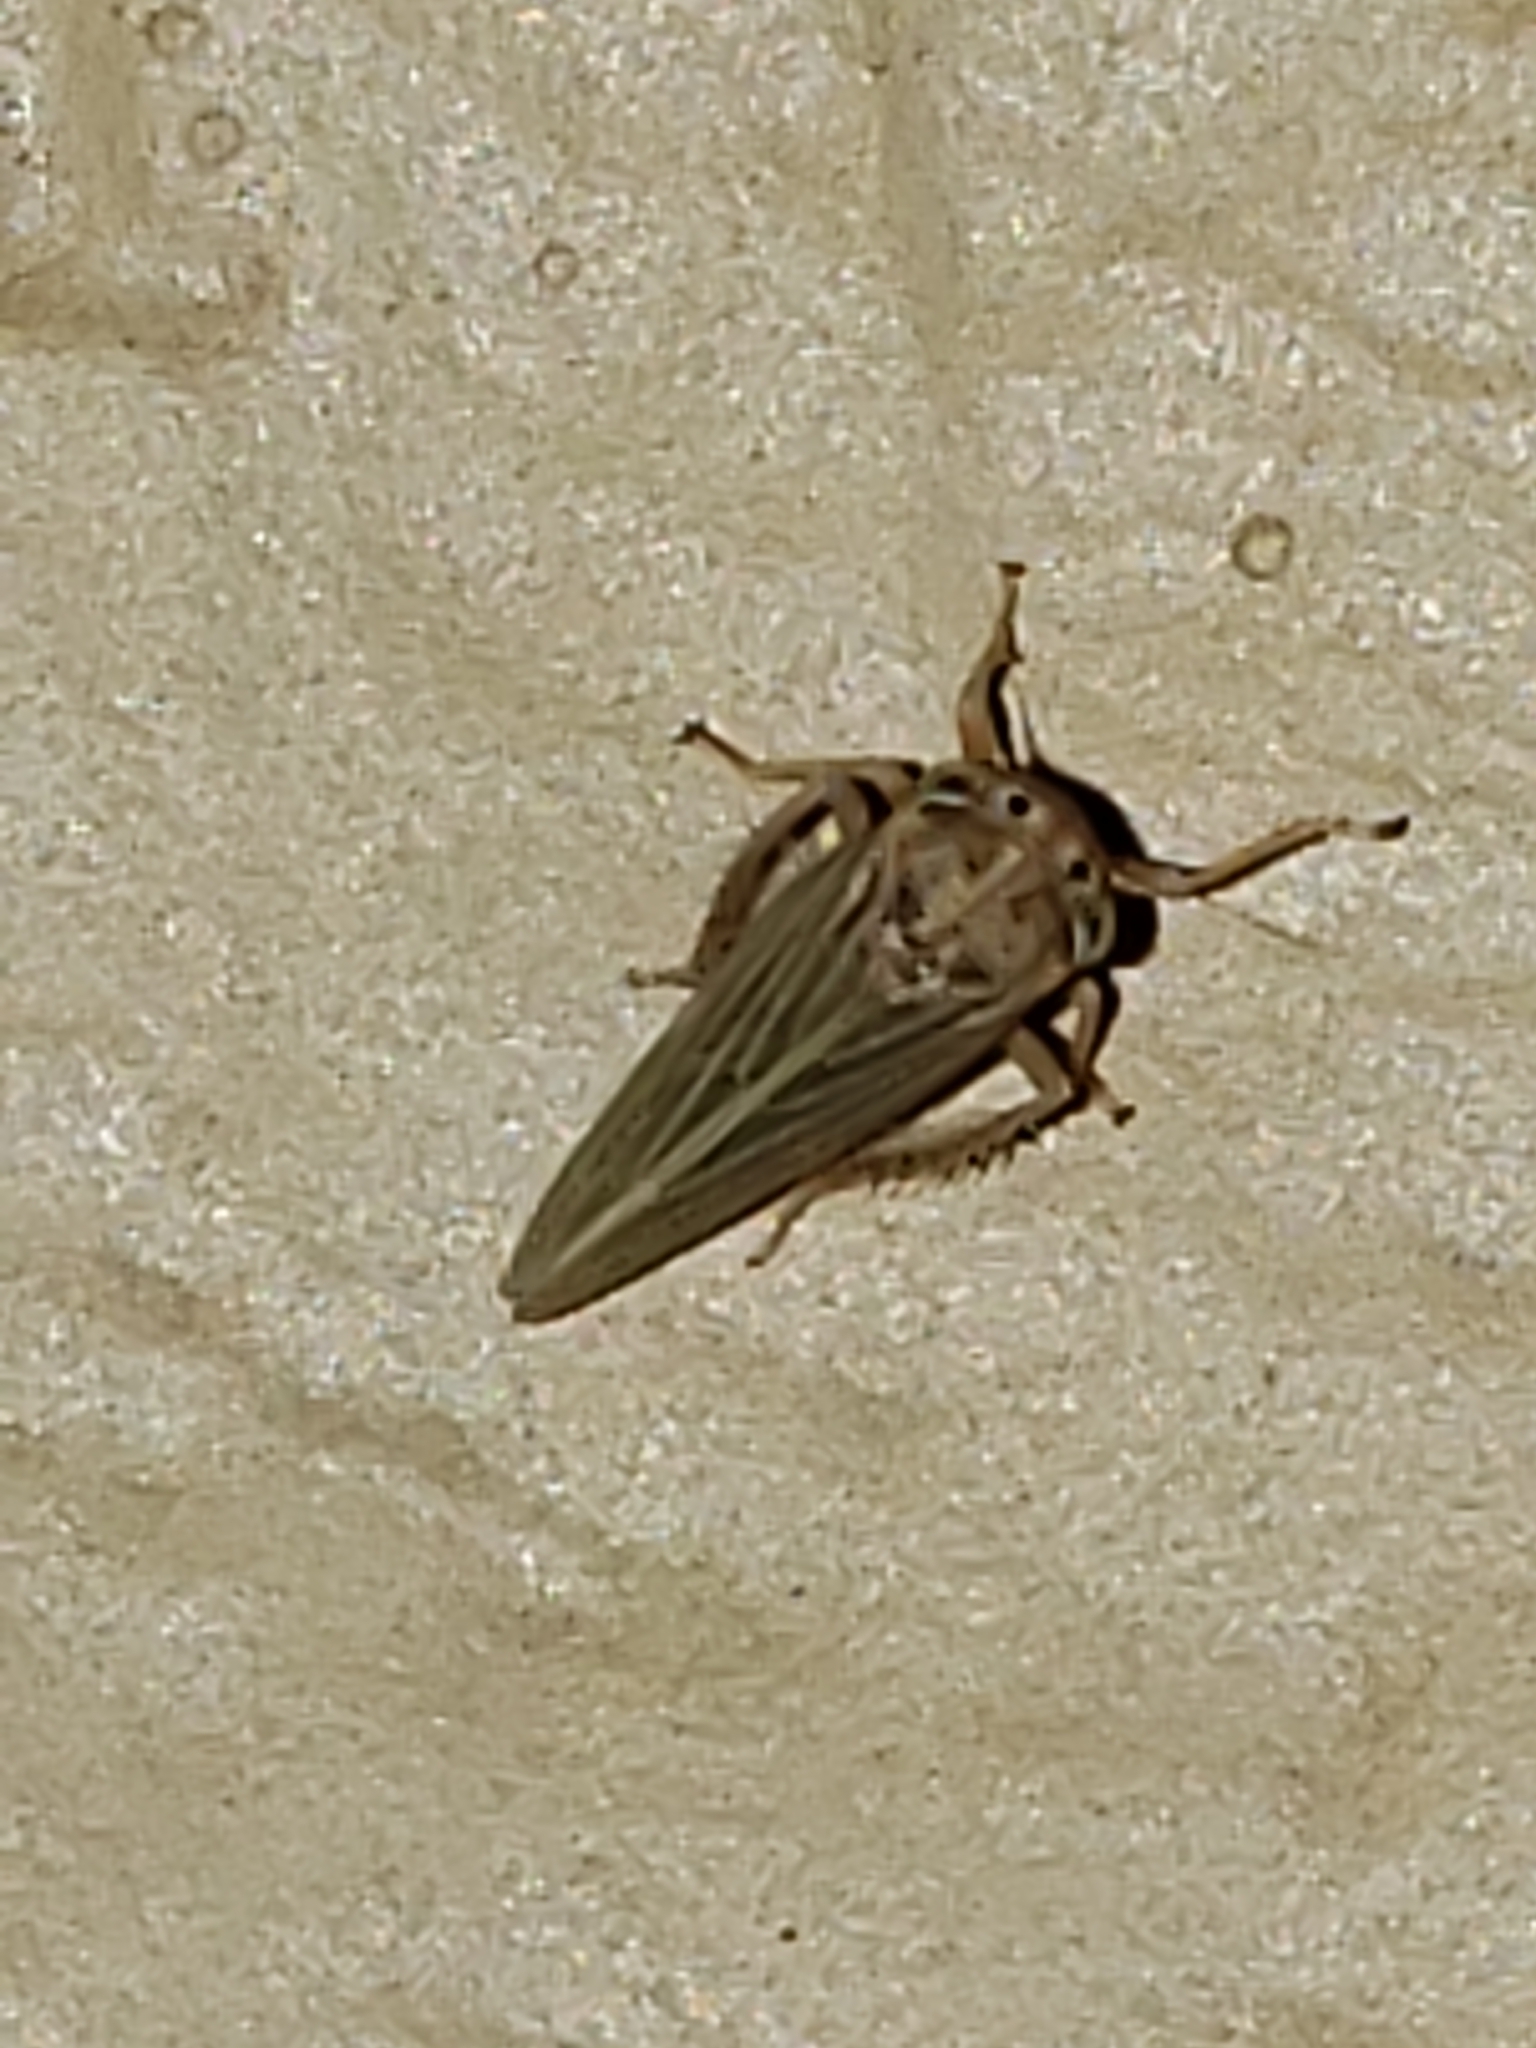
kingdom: Animalia
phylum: Arthropoda
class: Insecta
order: Hemiptera
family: Cicadellidae
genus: Agallia
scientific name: Agallia constricta
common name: The constricted leafhopper
